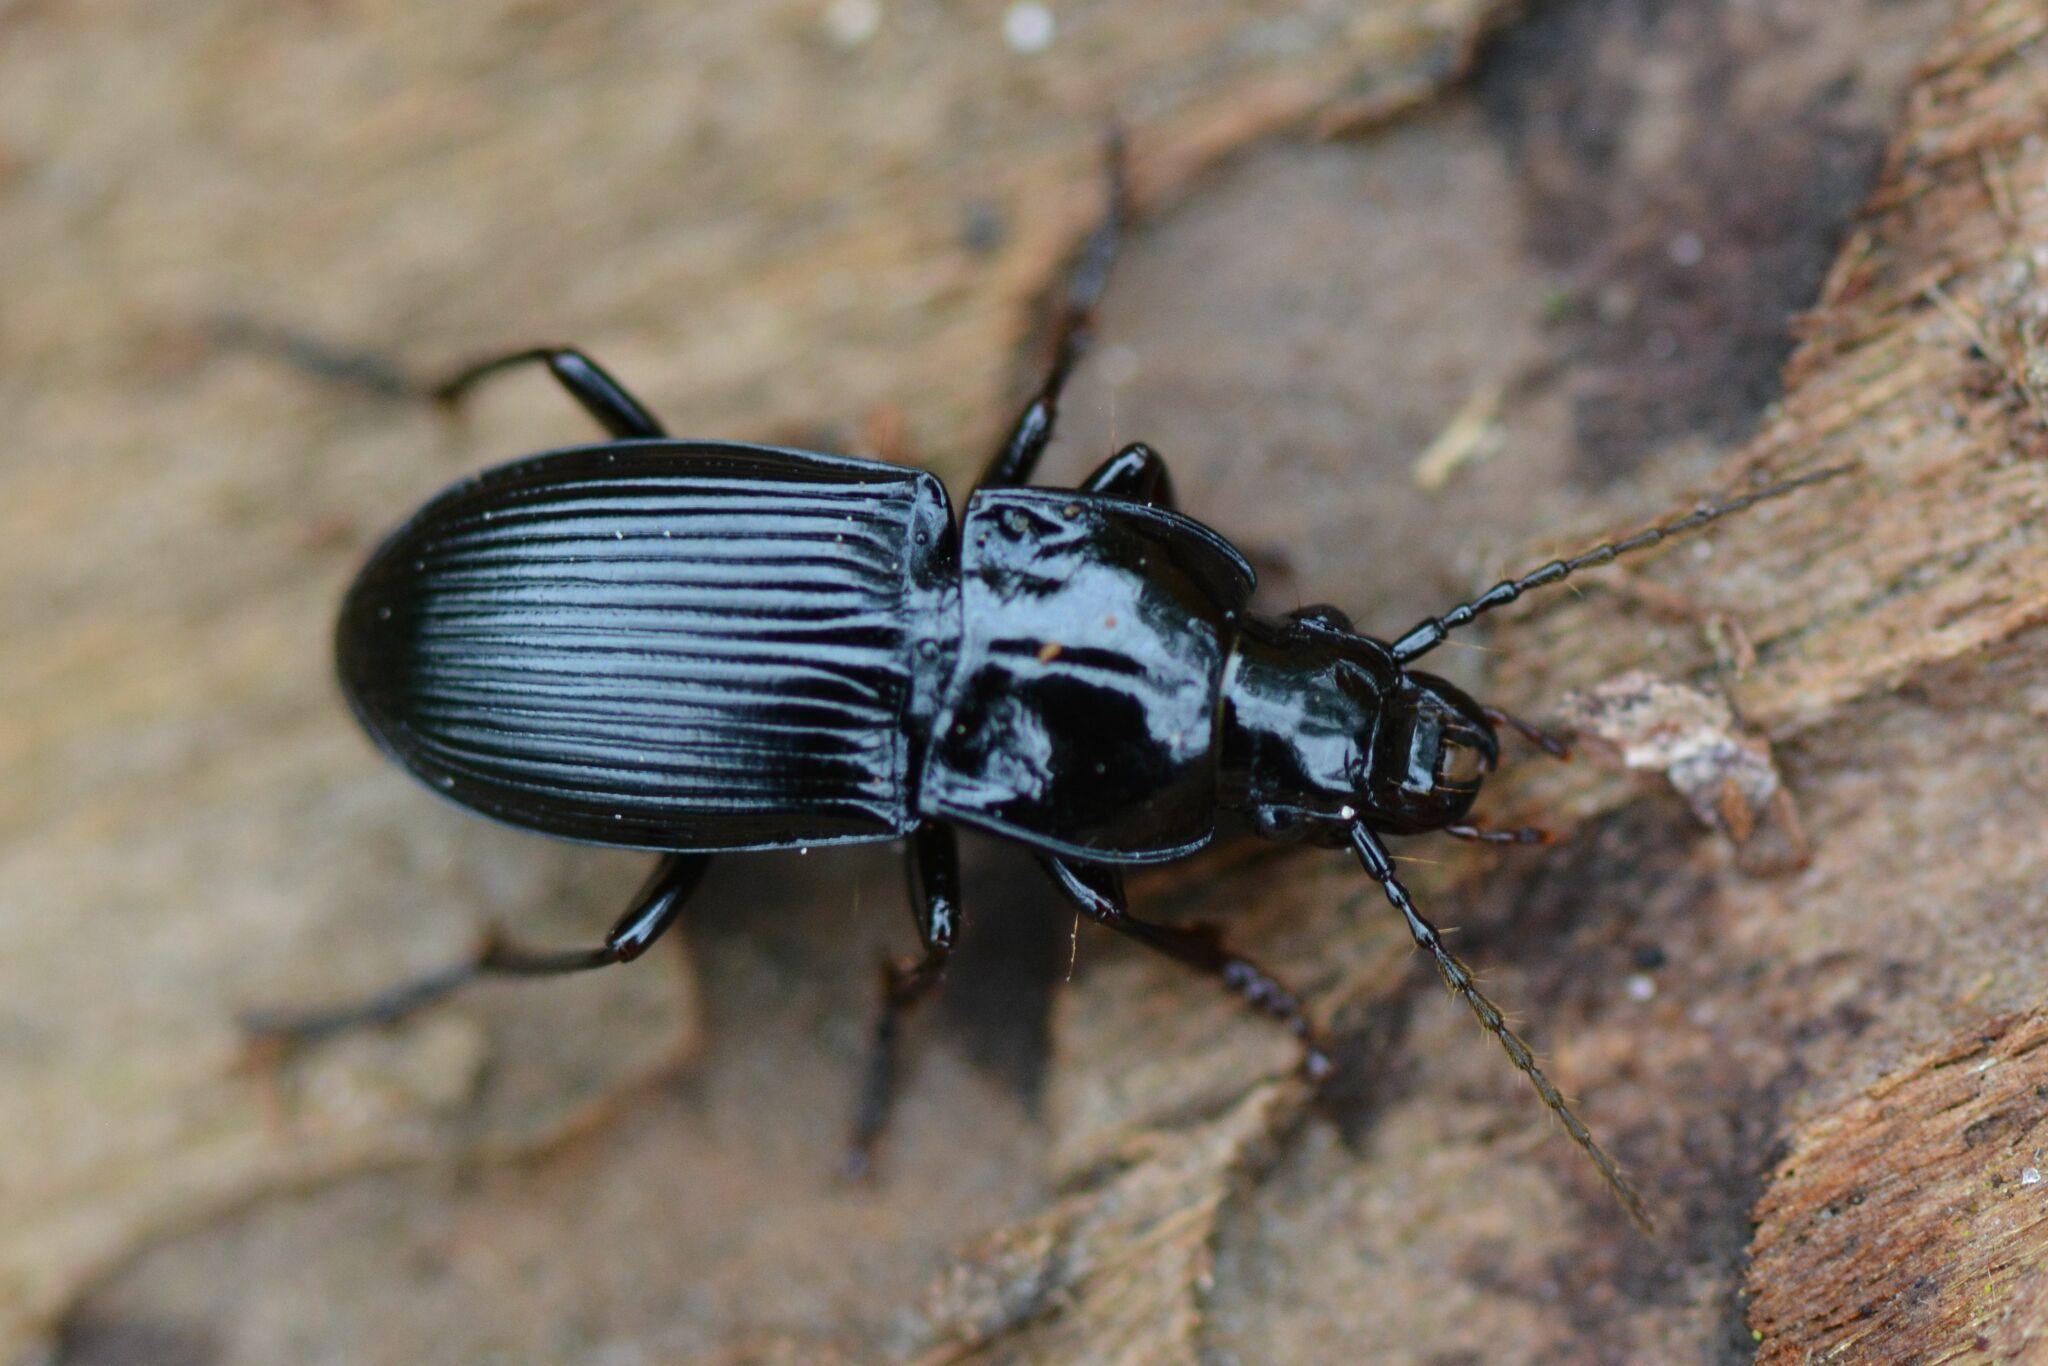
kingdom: Animalia
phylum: Arthropoda
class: Insecta
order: Coleoptera
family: Carabidae
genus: Abax
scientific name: Abax parallelus
